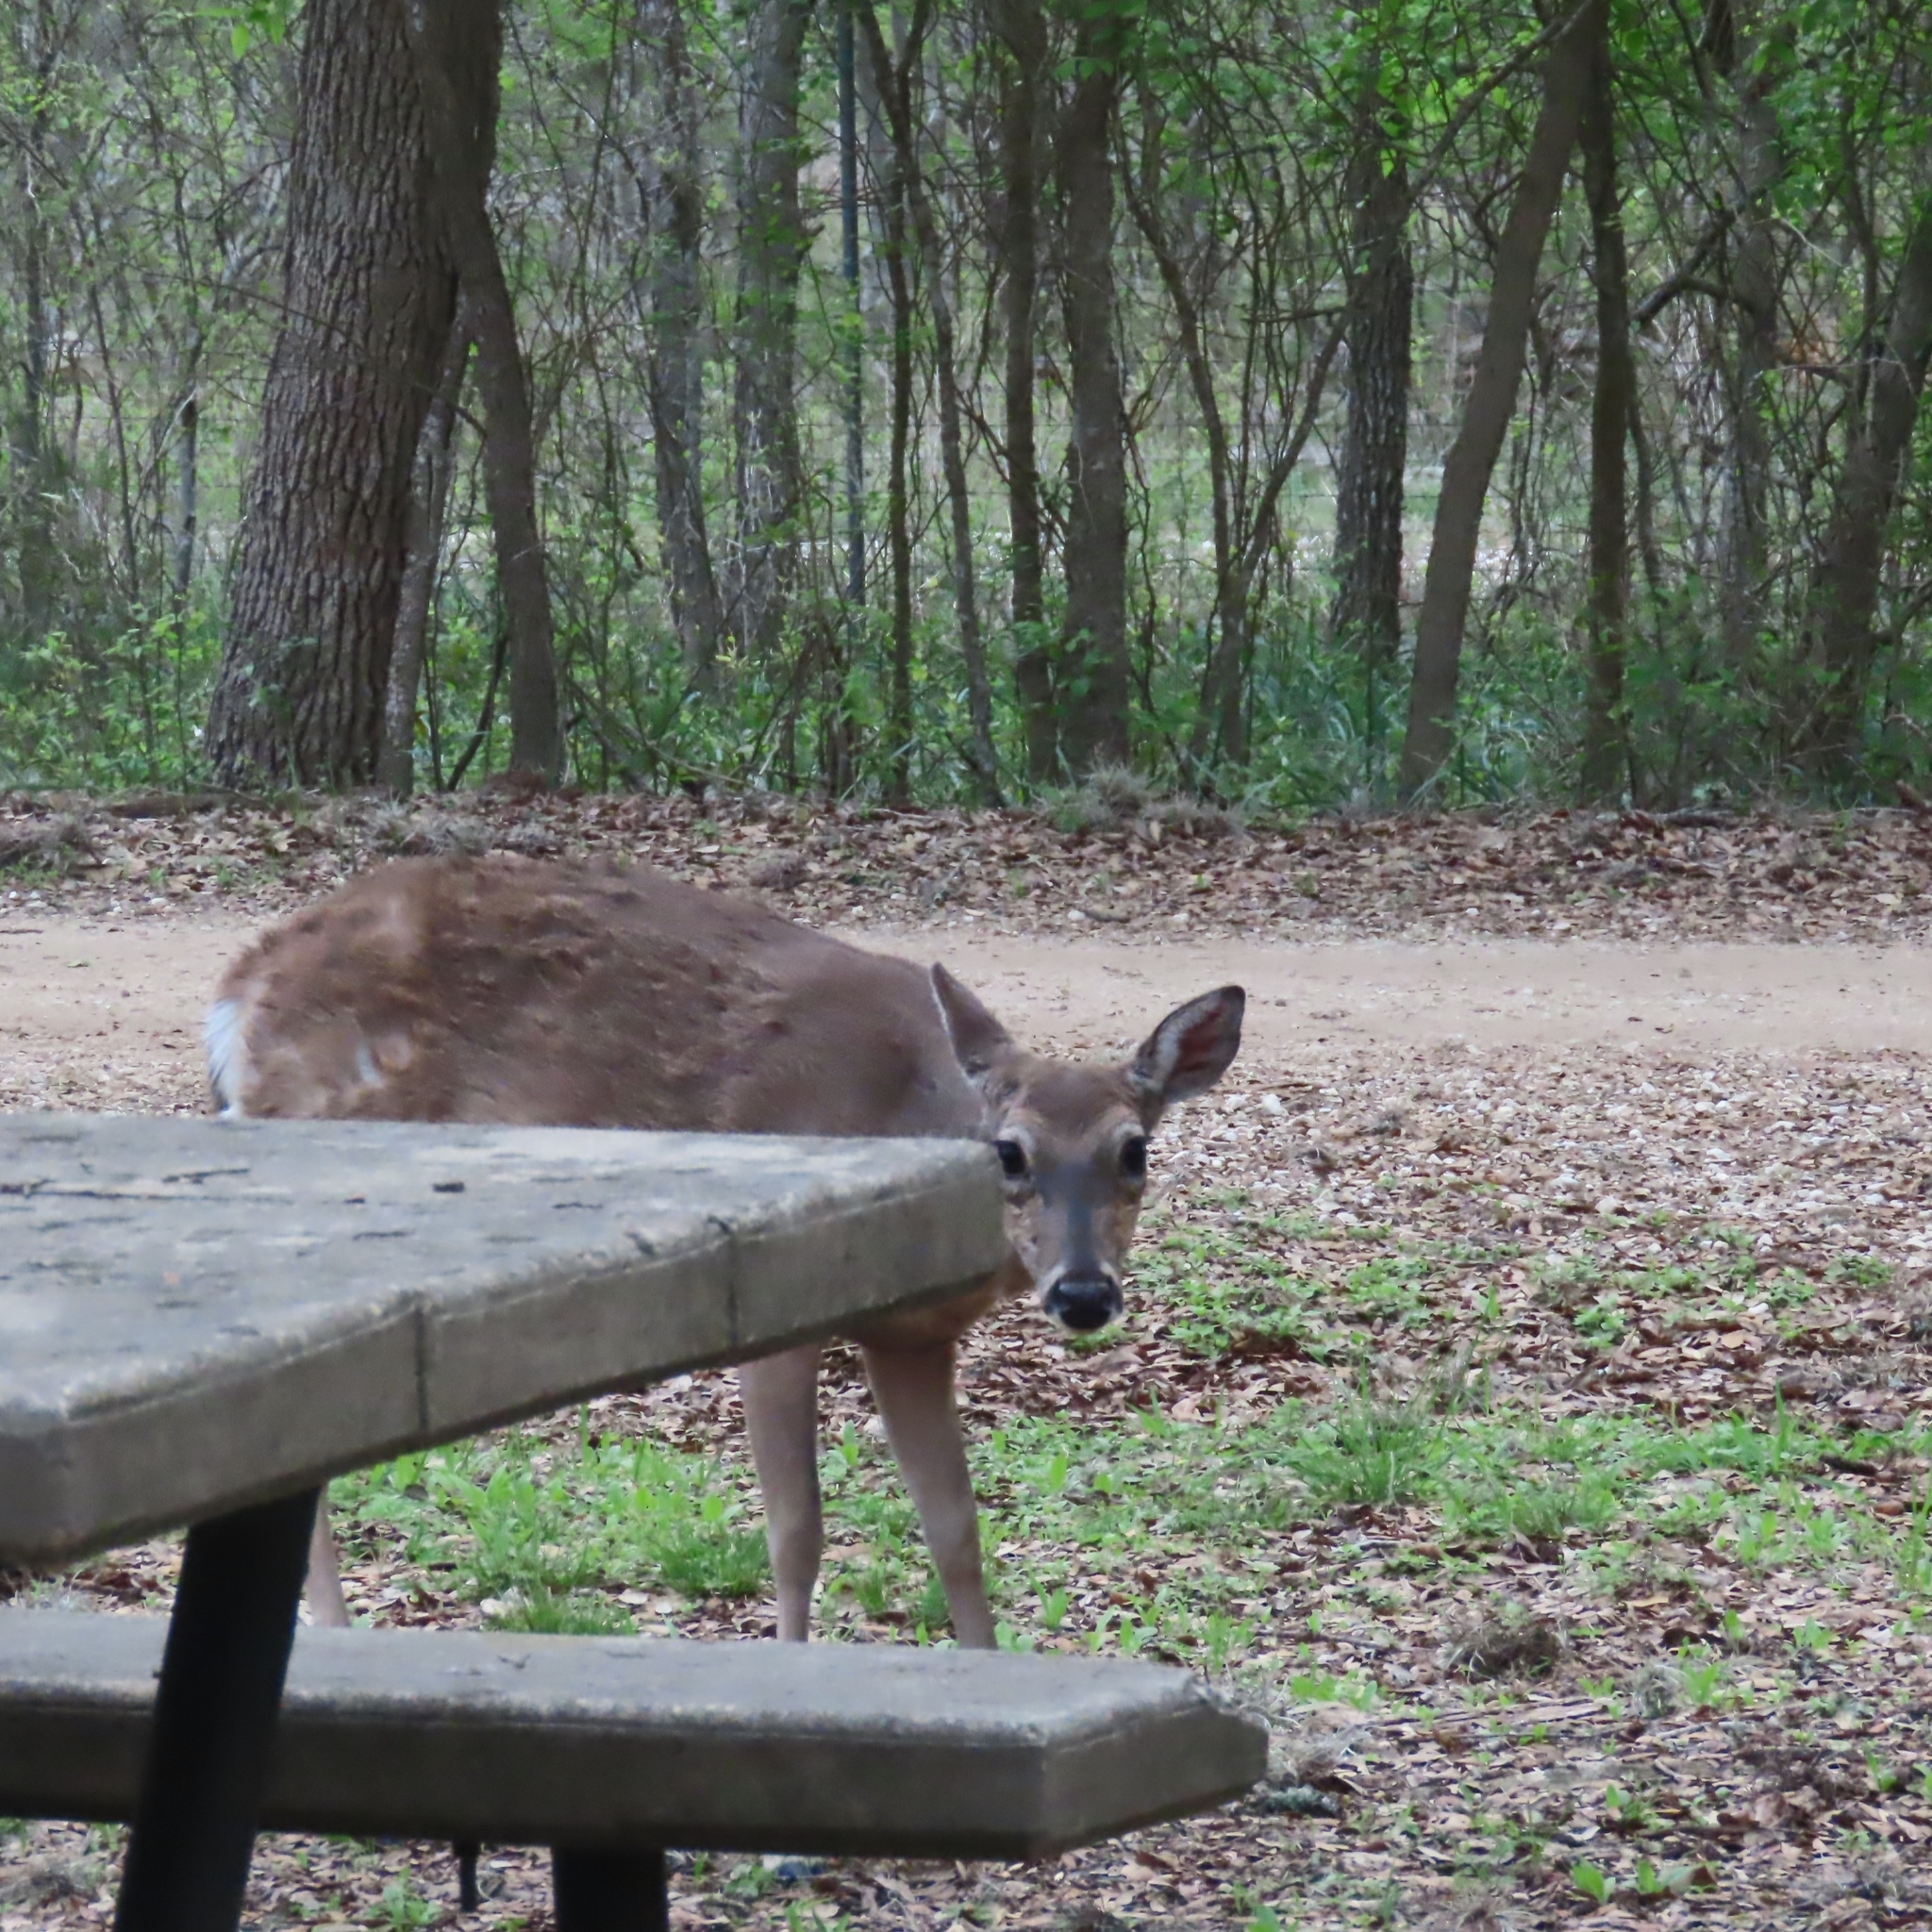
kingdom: Animalia
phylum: Chordata
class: Mammalia
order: Artiodactyla
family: Cervidae
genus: Odocoileus
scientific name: Odocoileus virginianus
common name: White-tailed deer
